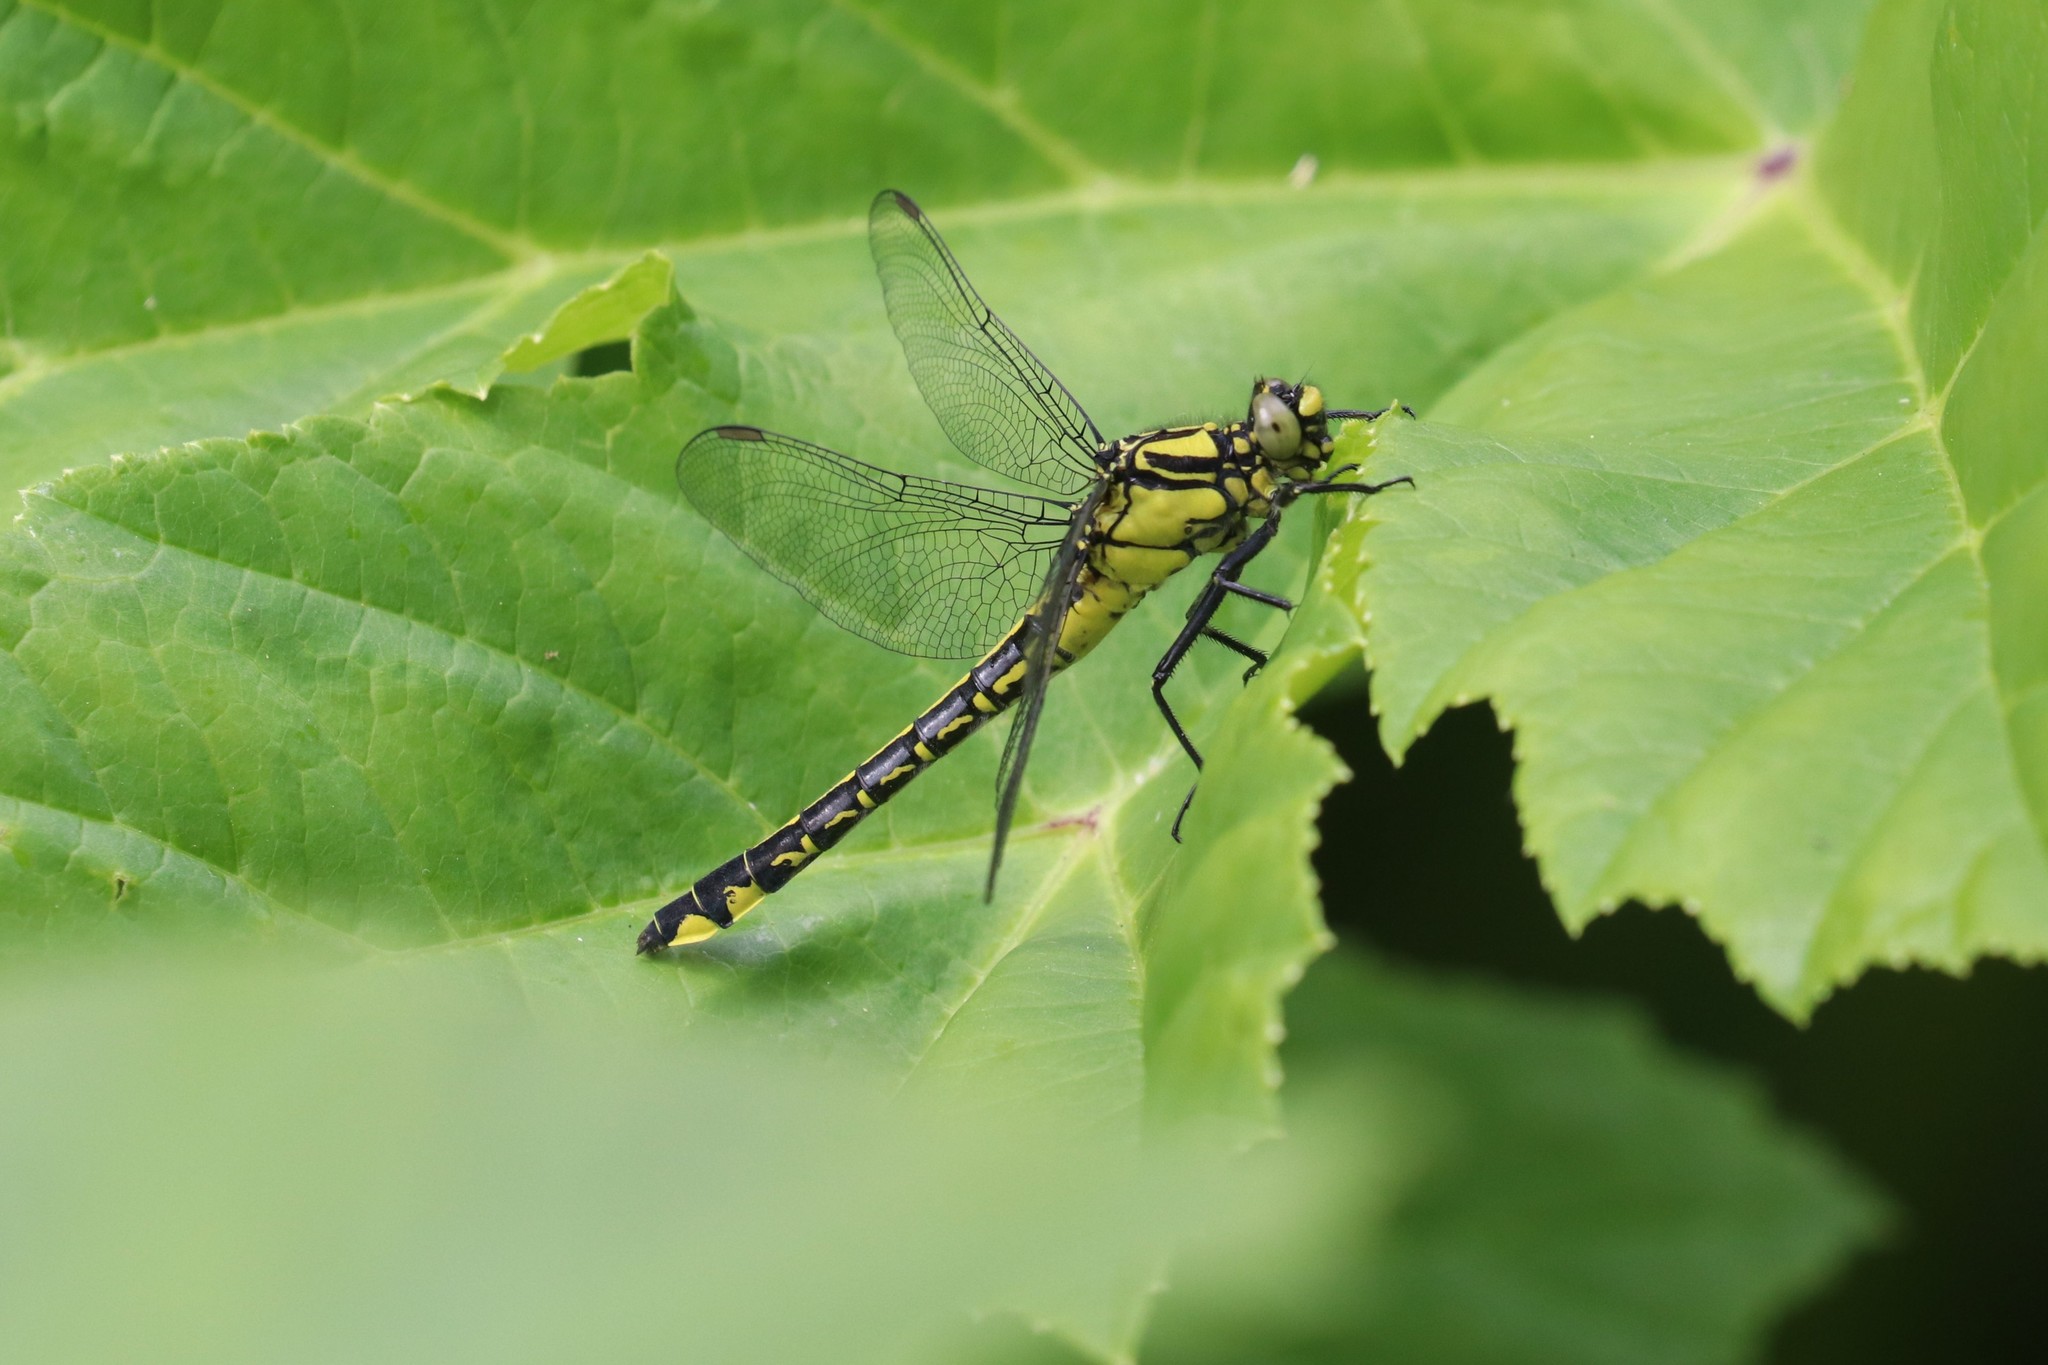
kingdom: Animalia
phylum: Arthropoda
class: Insecta
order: Odonata
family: Gomphidae
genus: Gomphus
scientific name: Gomphus vulgatissimus
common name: Club-tailed dragonfly
